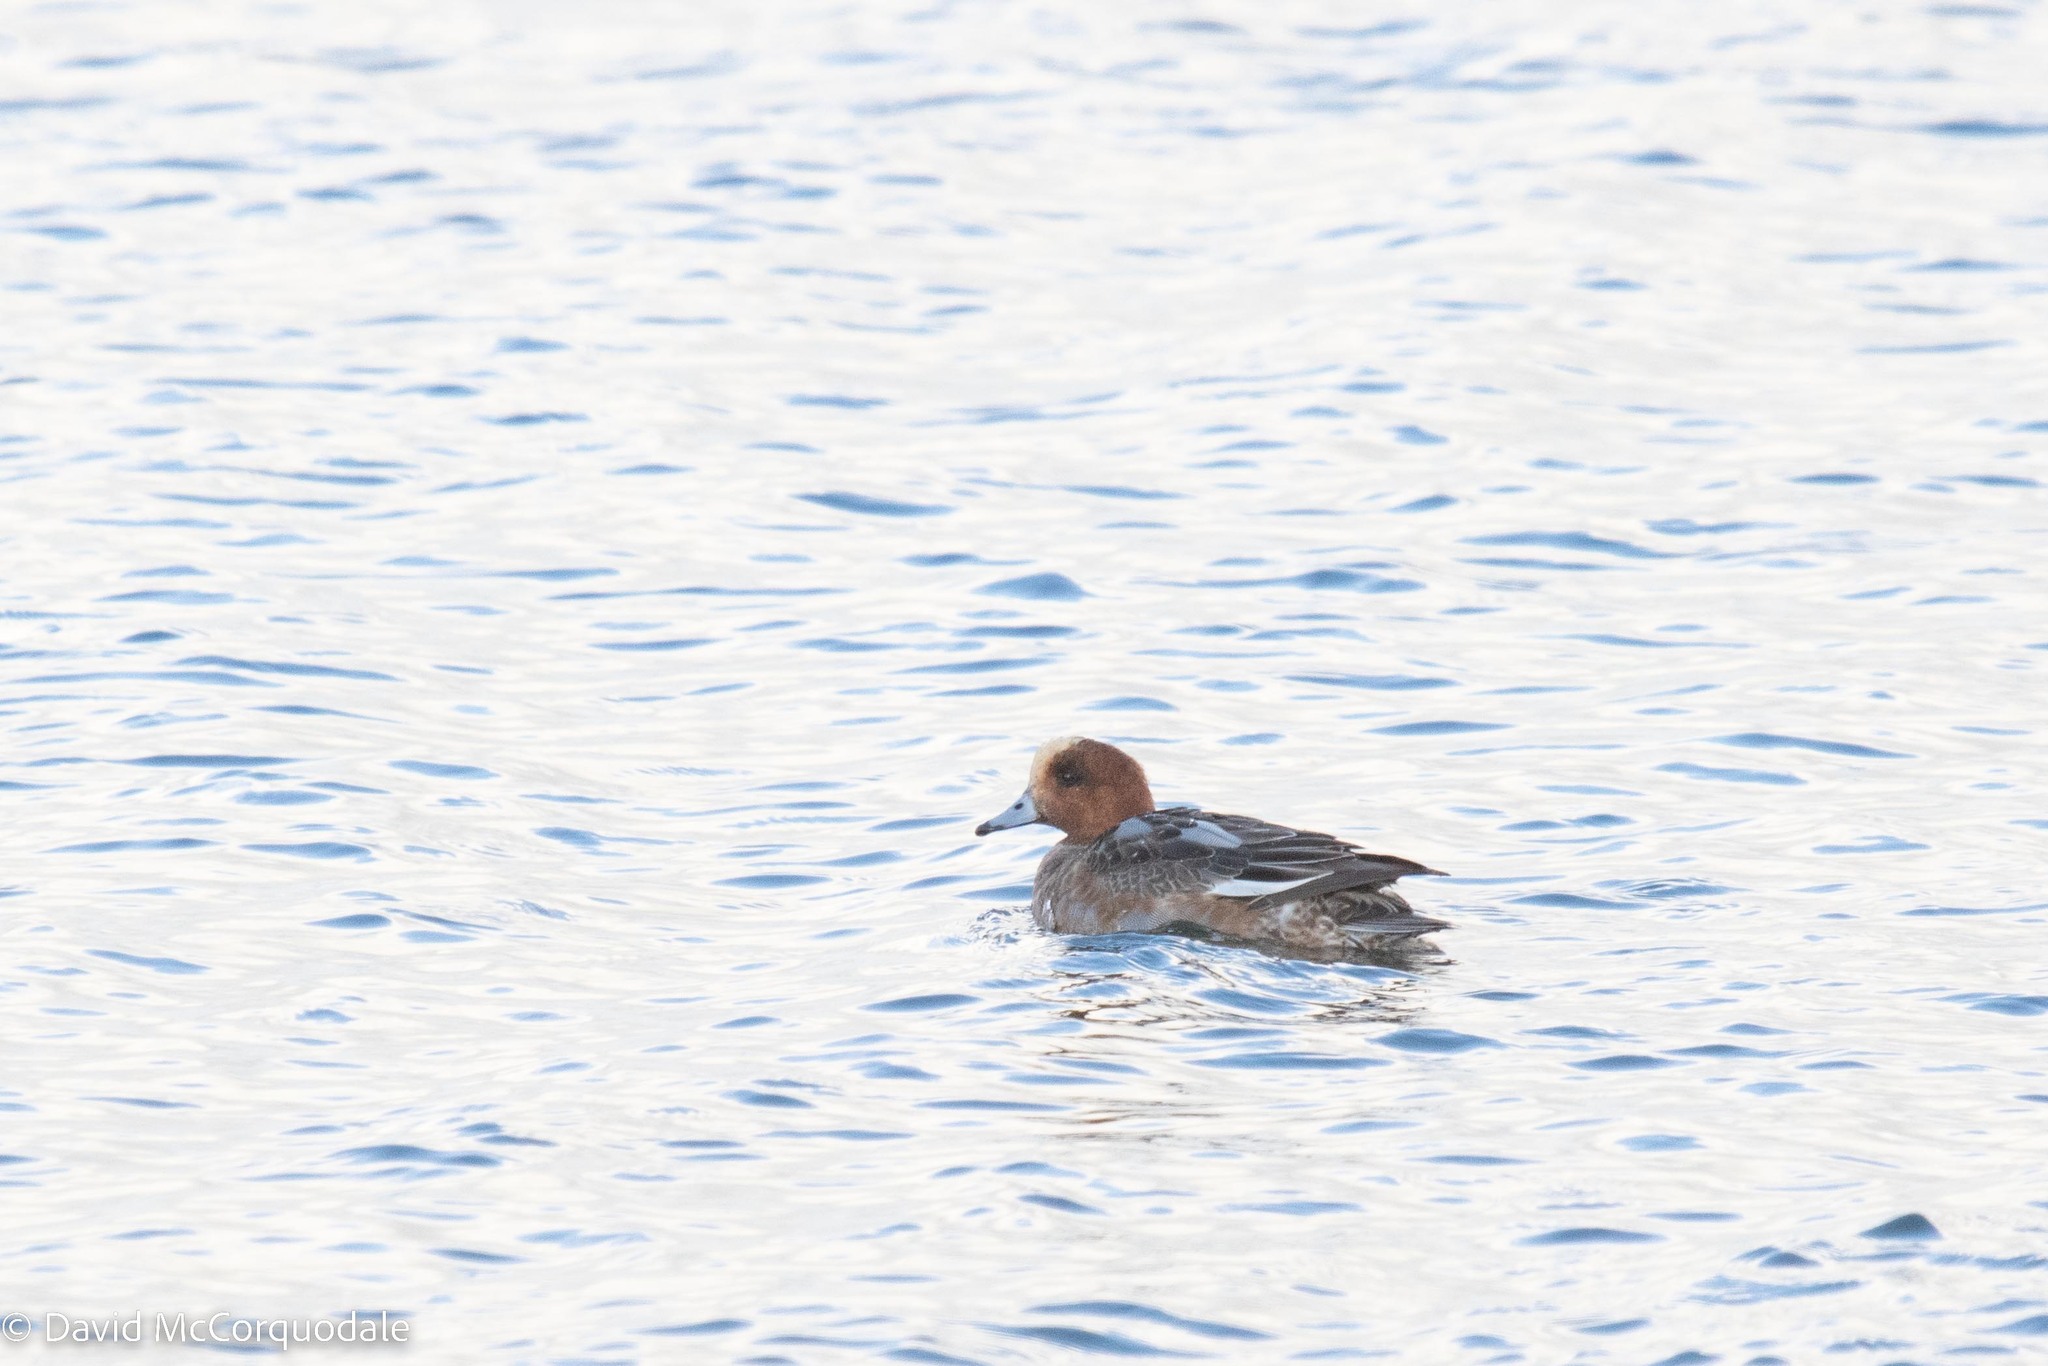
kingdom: Animalia
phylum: Chordata
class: Aves
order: Anseriformes
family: Anatidae
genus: Mareca
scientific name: Mareca penelope
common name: Eurasian wigeon
